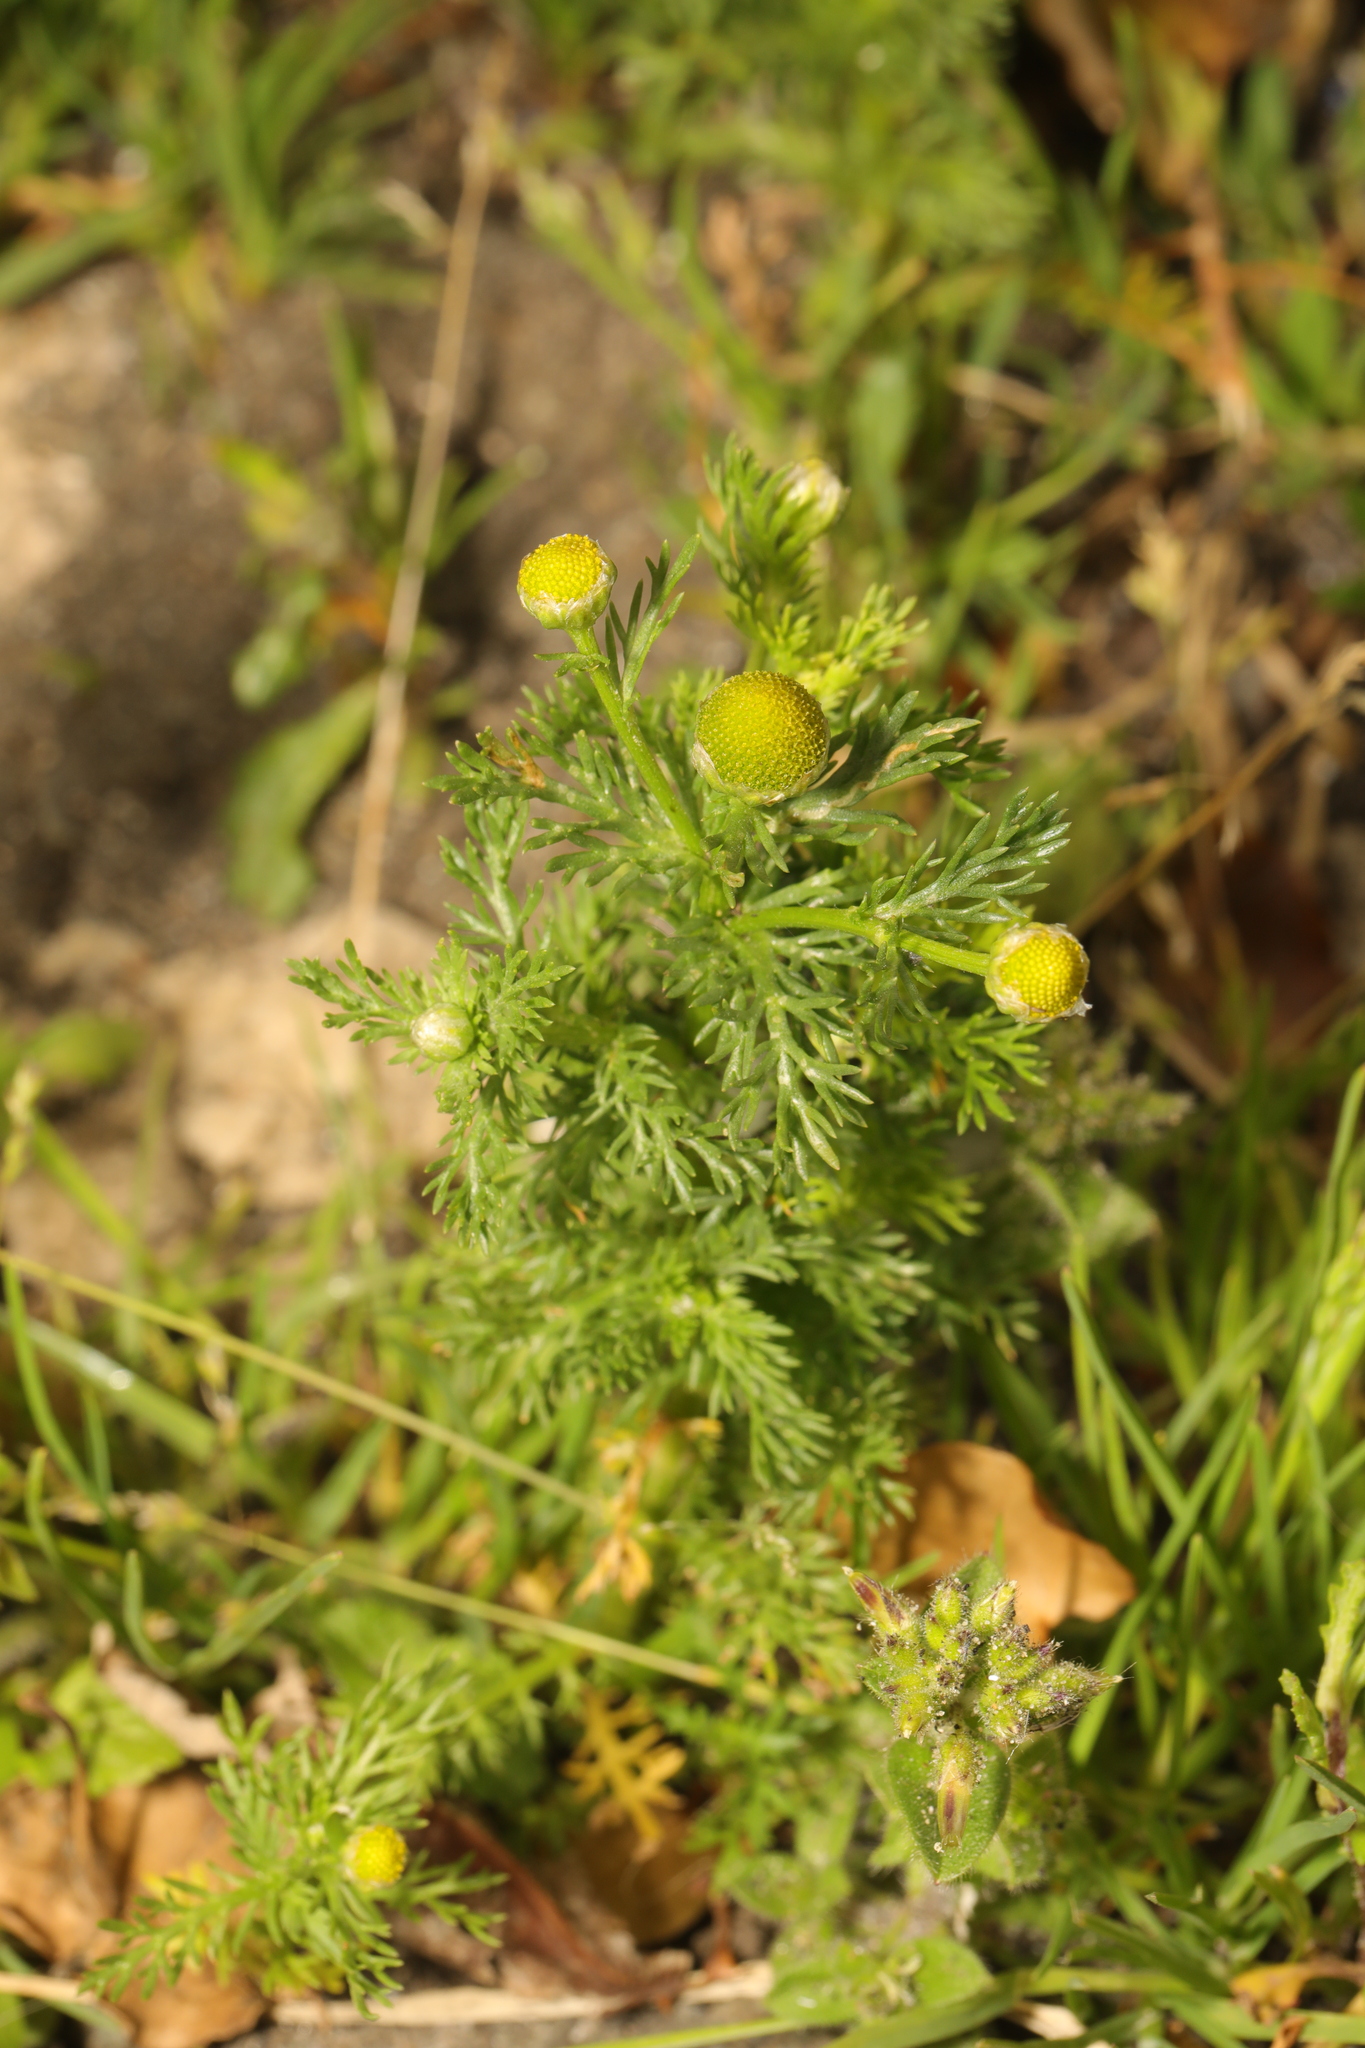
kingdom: Plantae
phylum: Tracheophyta
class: Magnoliopsida
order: Asterales
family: Asteraceae
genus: Matricaria
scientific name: Matricaria discoidea
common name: Disc mayweed
